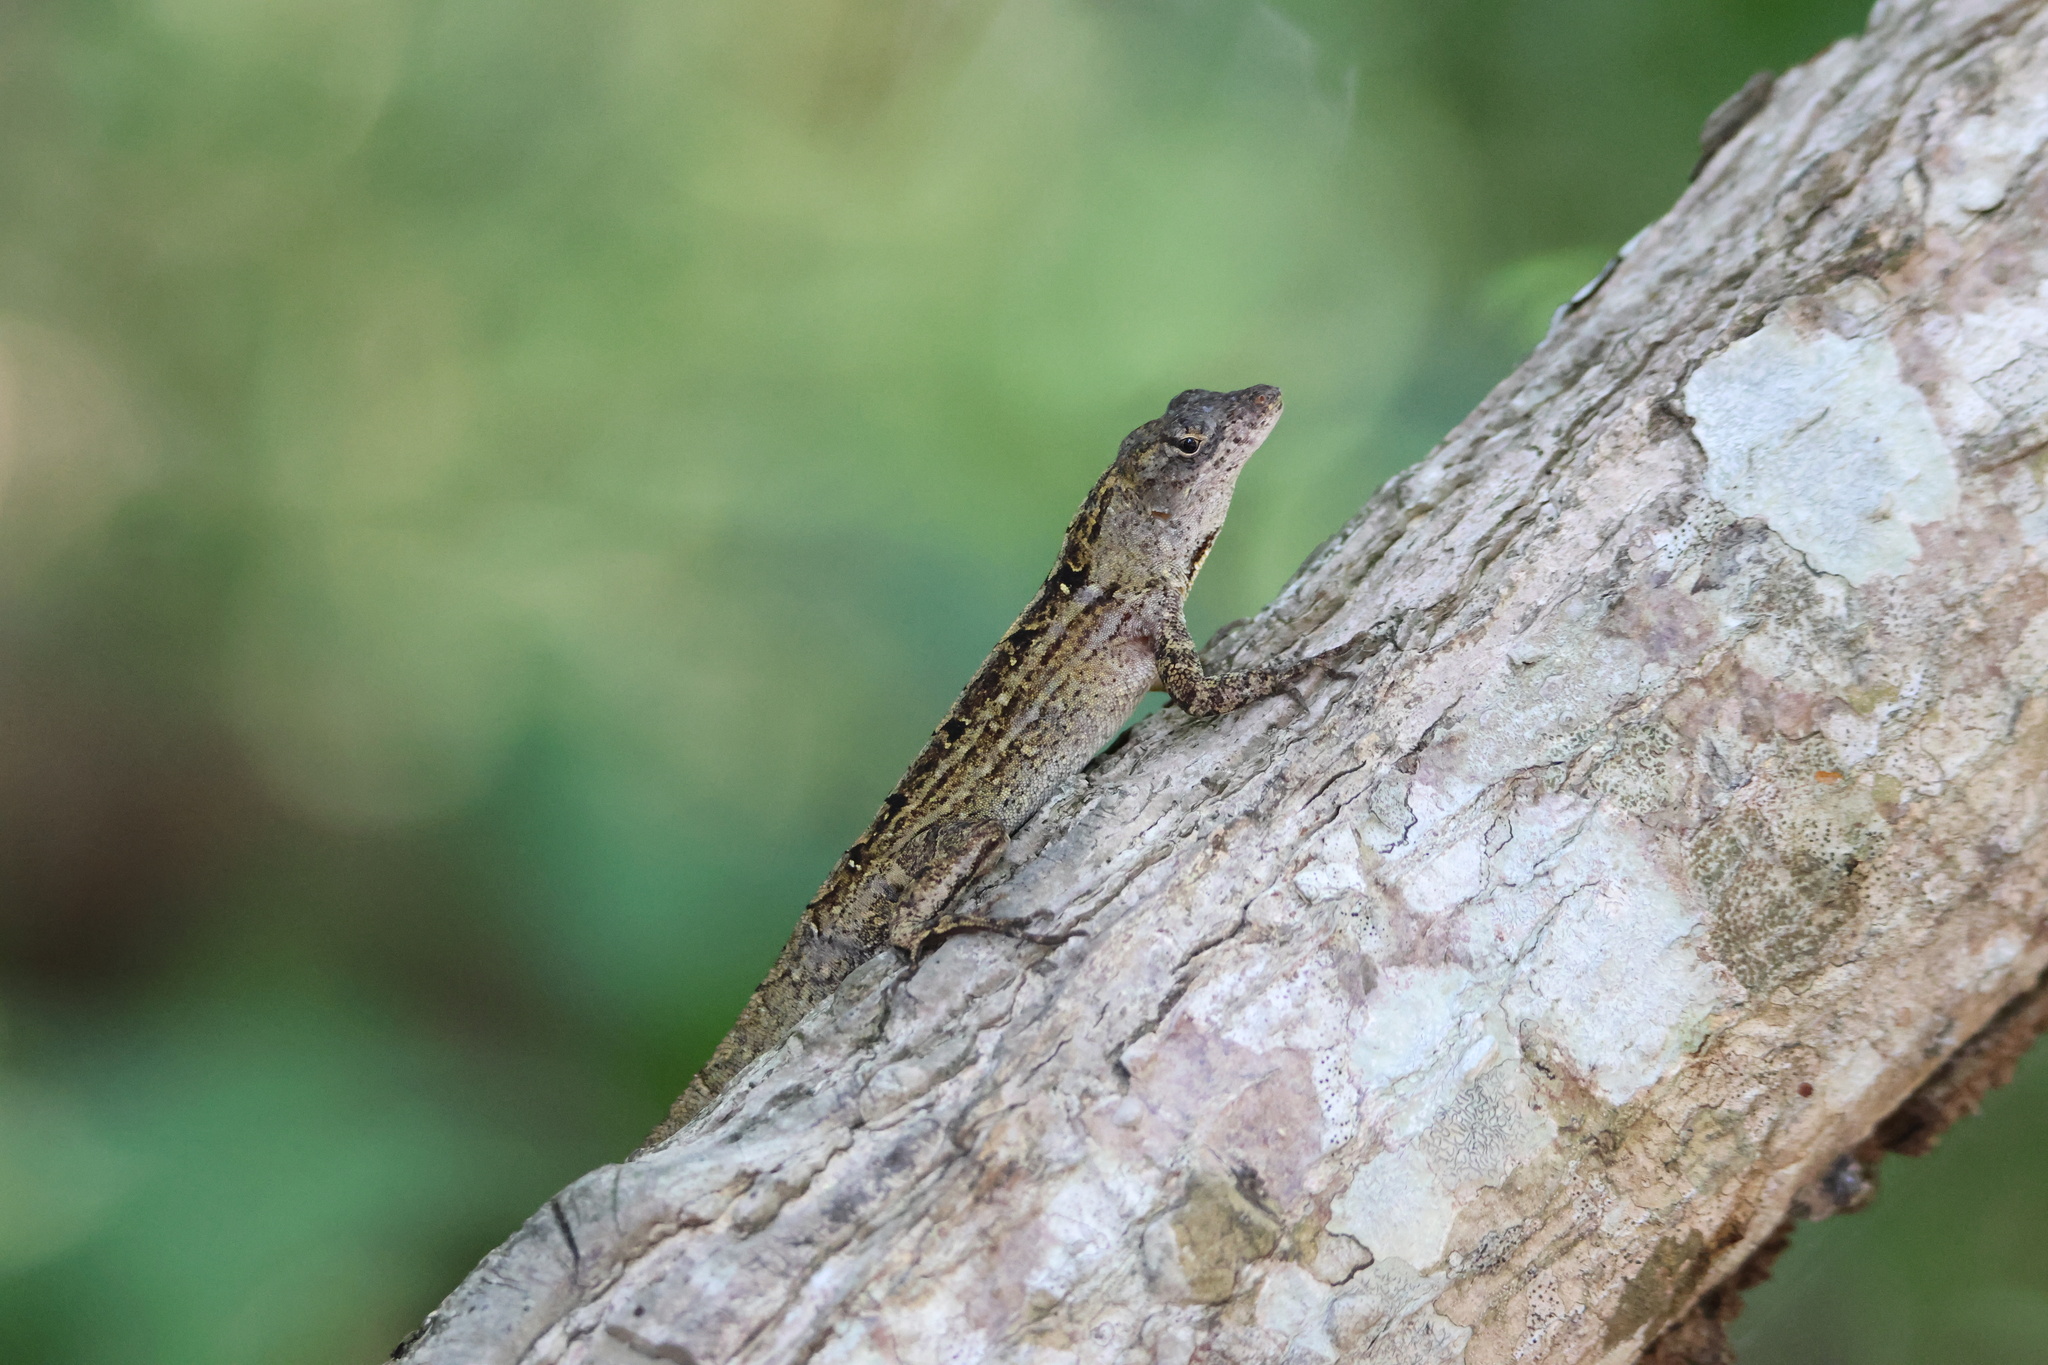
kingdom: Animalia
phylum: Chordata
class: Squamata
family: Dactyloidae
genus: Anolis
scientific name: Anolis sagrei
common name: Brown anole
